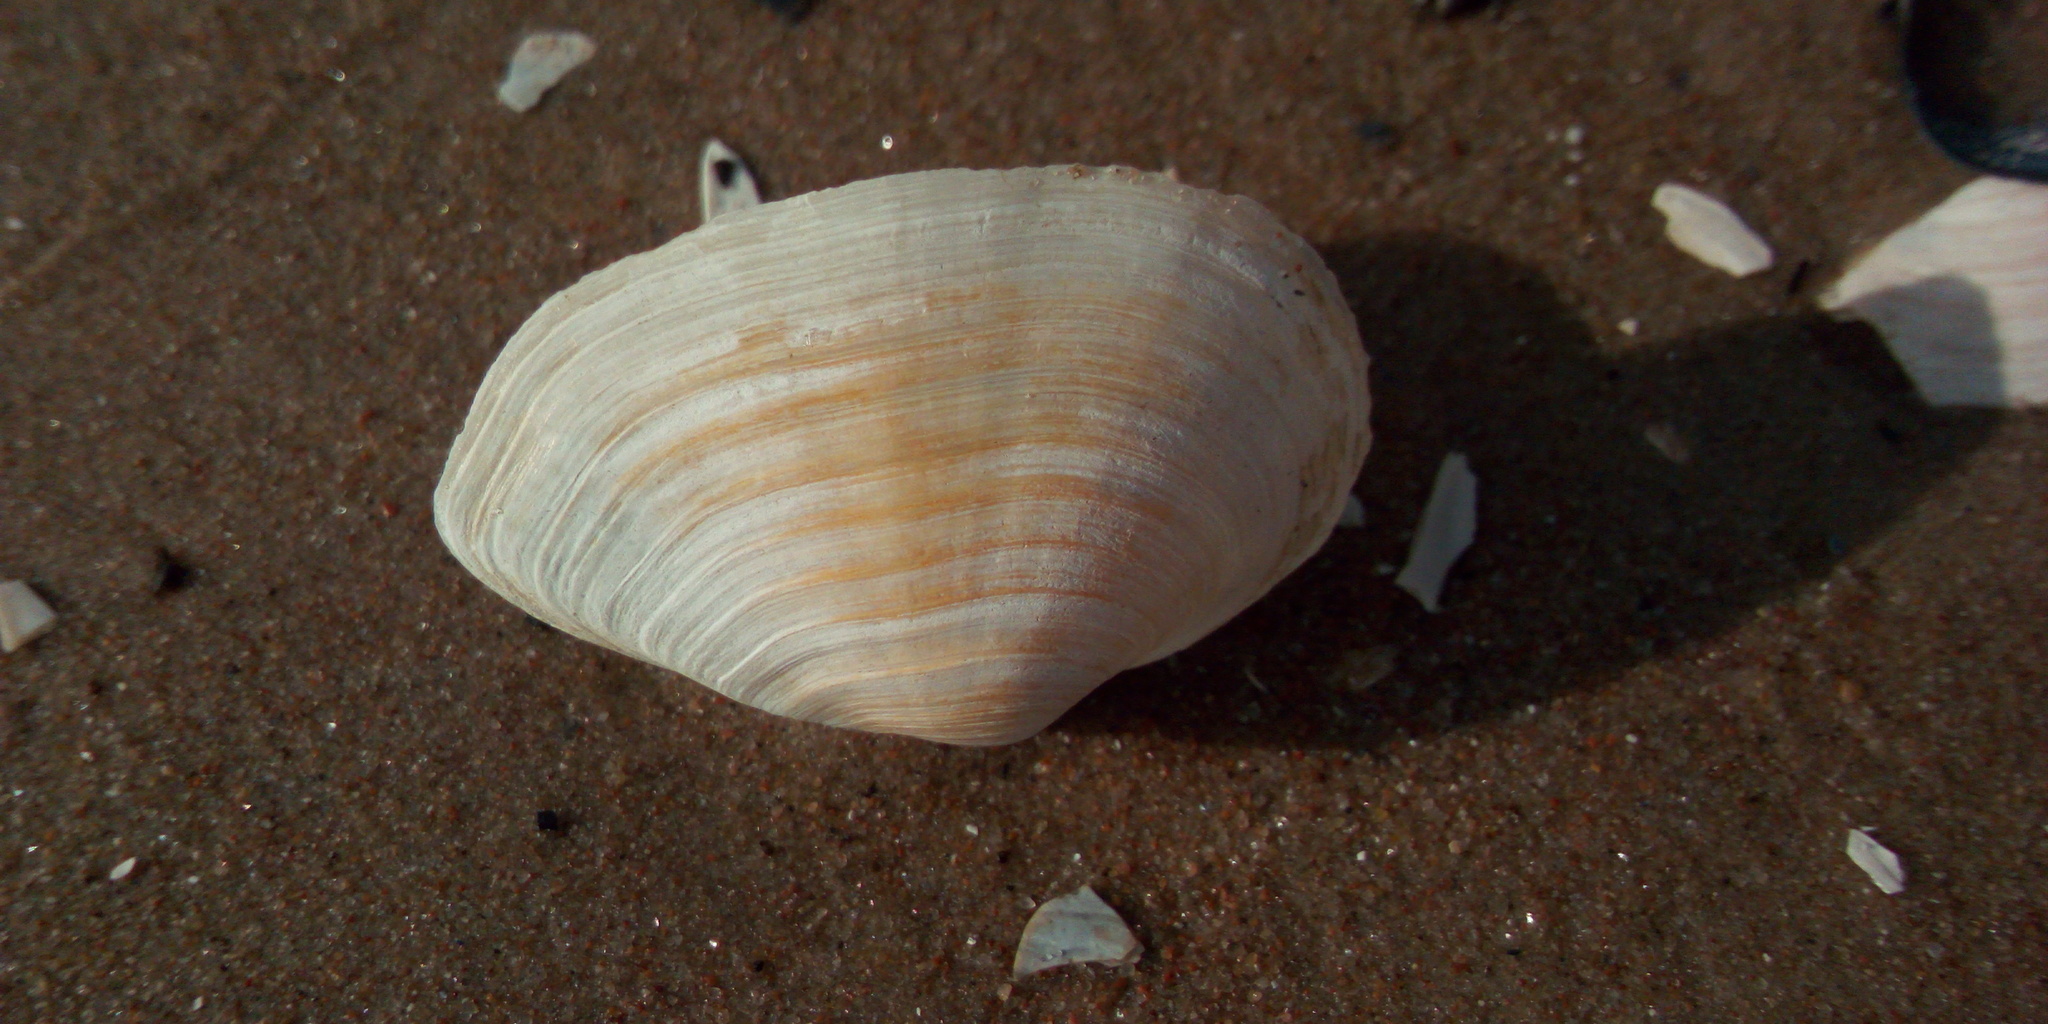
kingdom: Animalia
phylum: Mollusca
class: Bivalvia
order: Myida
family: Myidae
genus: Mya
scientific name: Mya arenaria
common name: Soft-shelled clam
